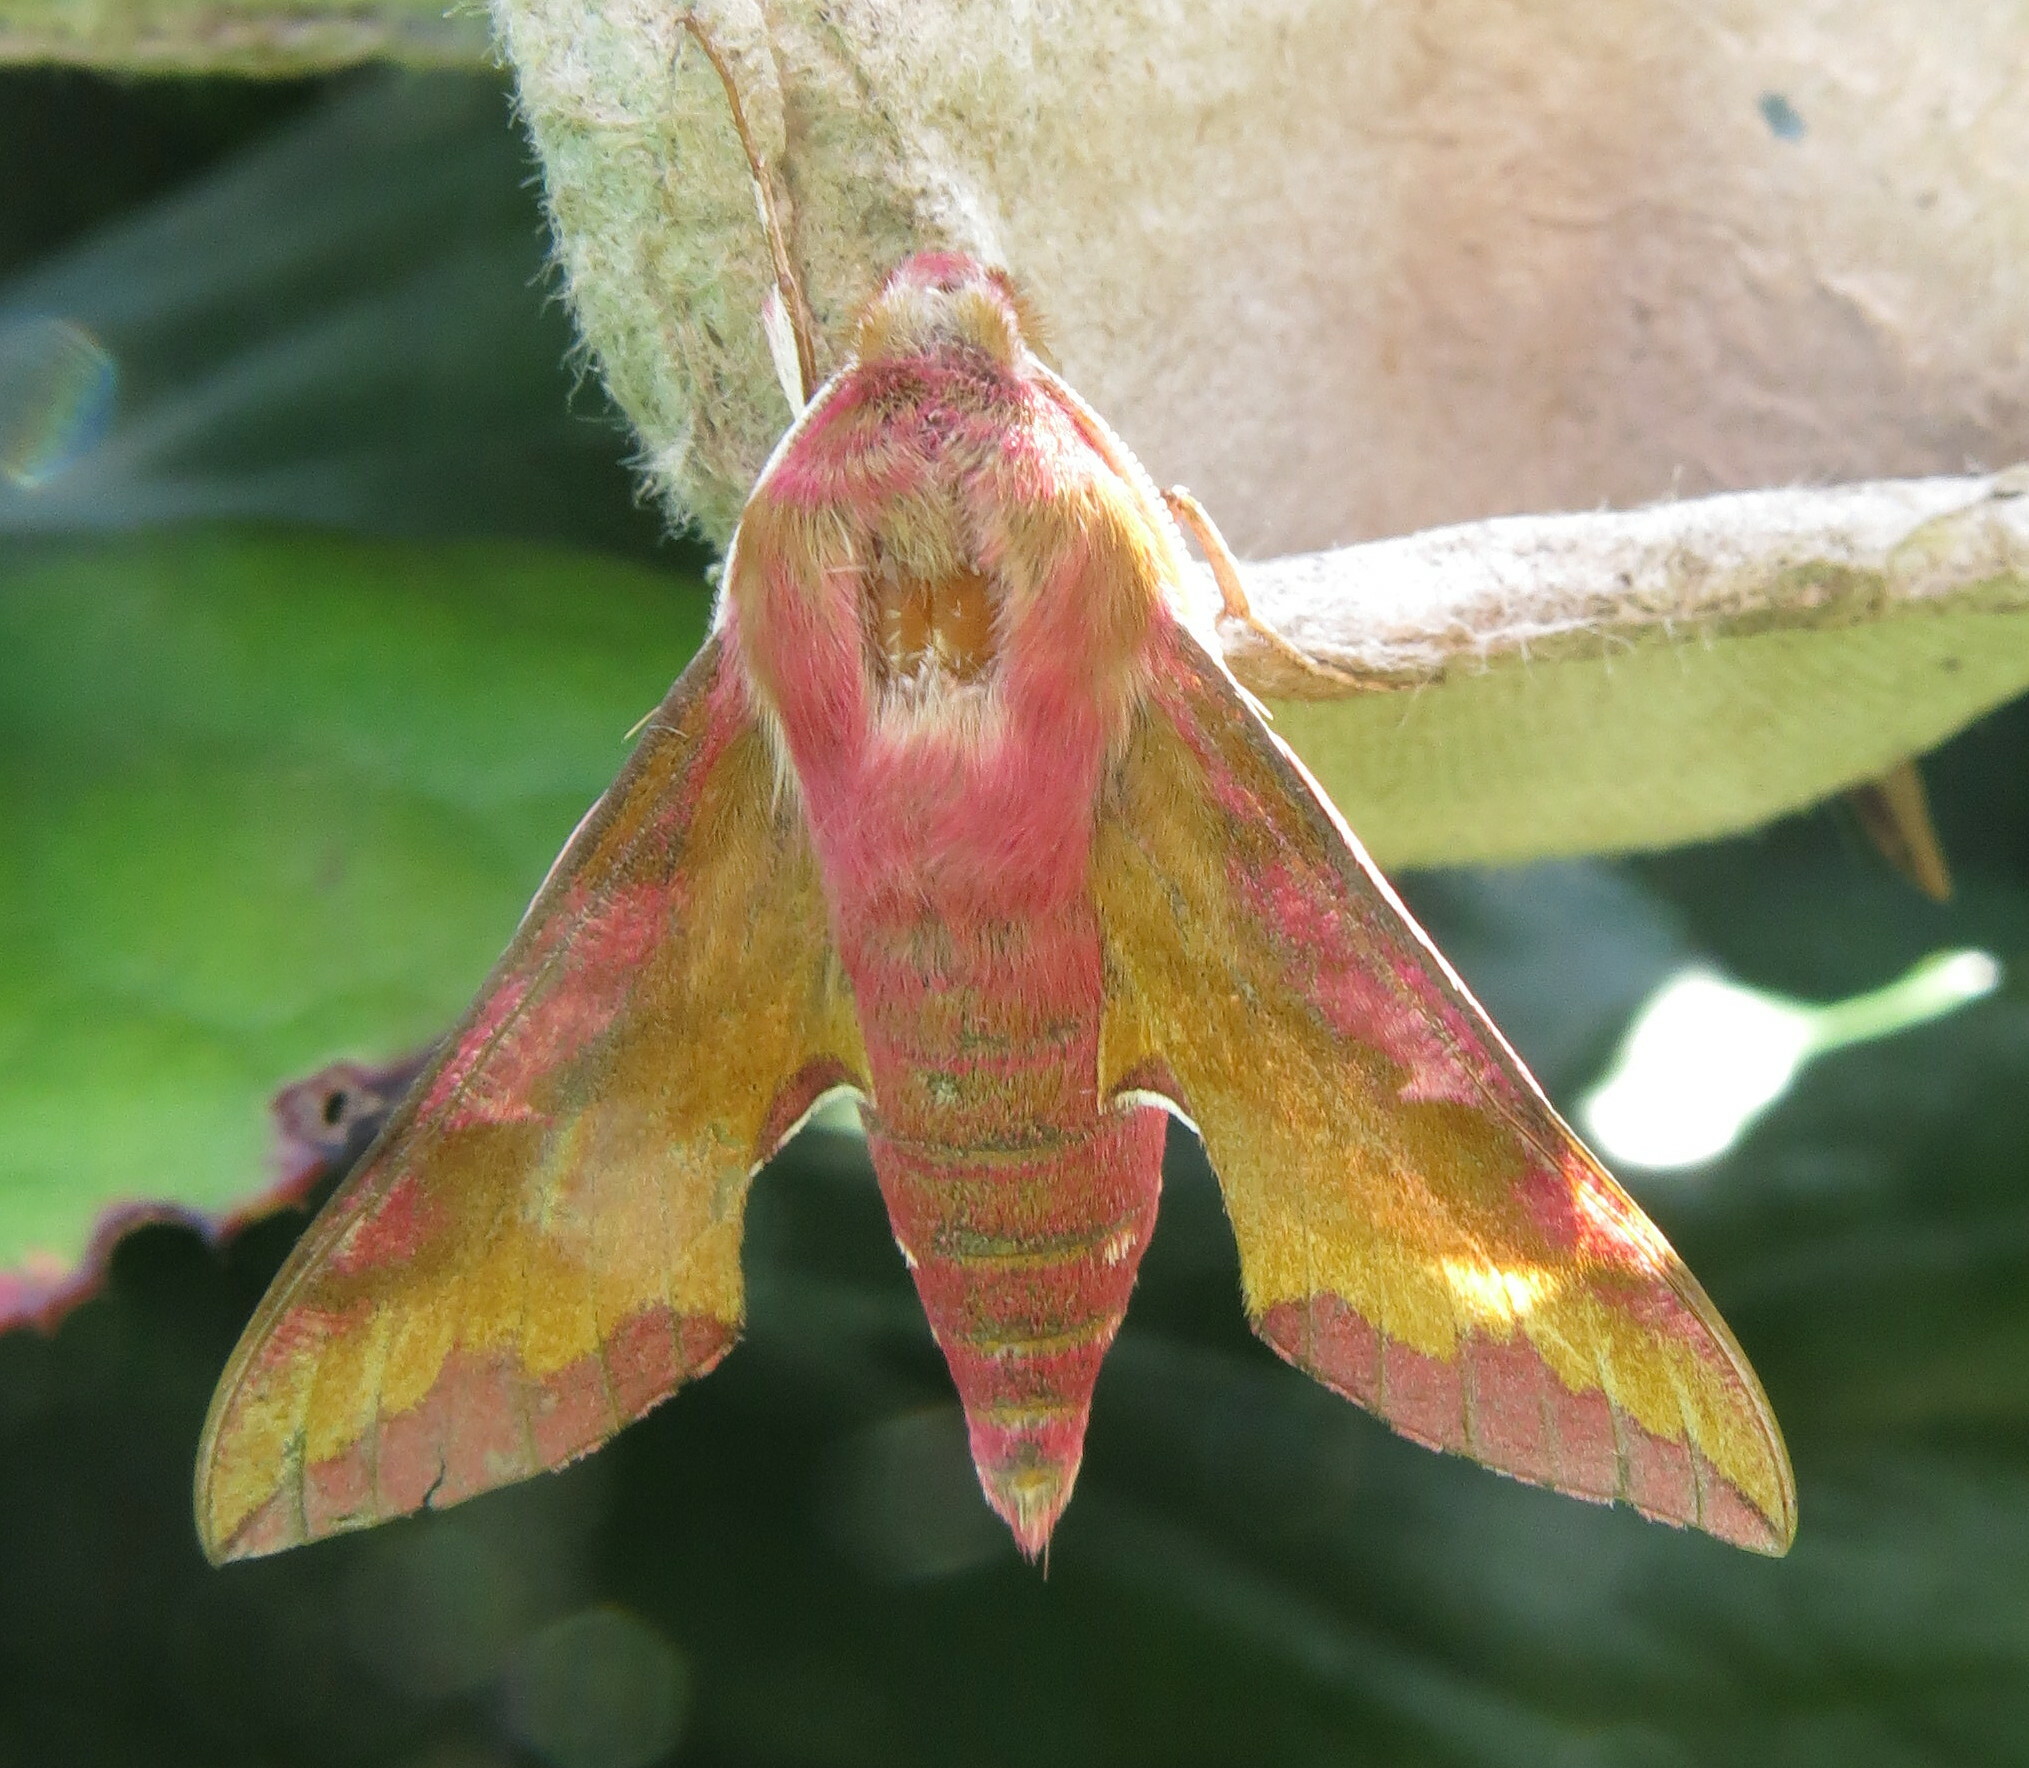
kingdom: Animalia
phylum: Arthropoda
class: Insecta
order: Lepidoptera
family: Sphingidae
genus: Deilephila
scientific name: Deilephila porcellus
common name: Small elephant hawk-moth
